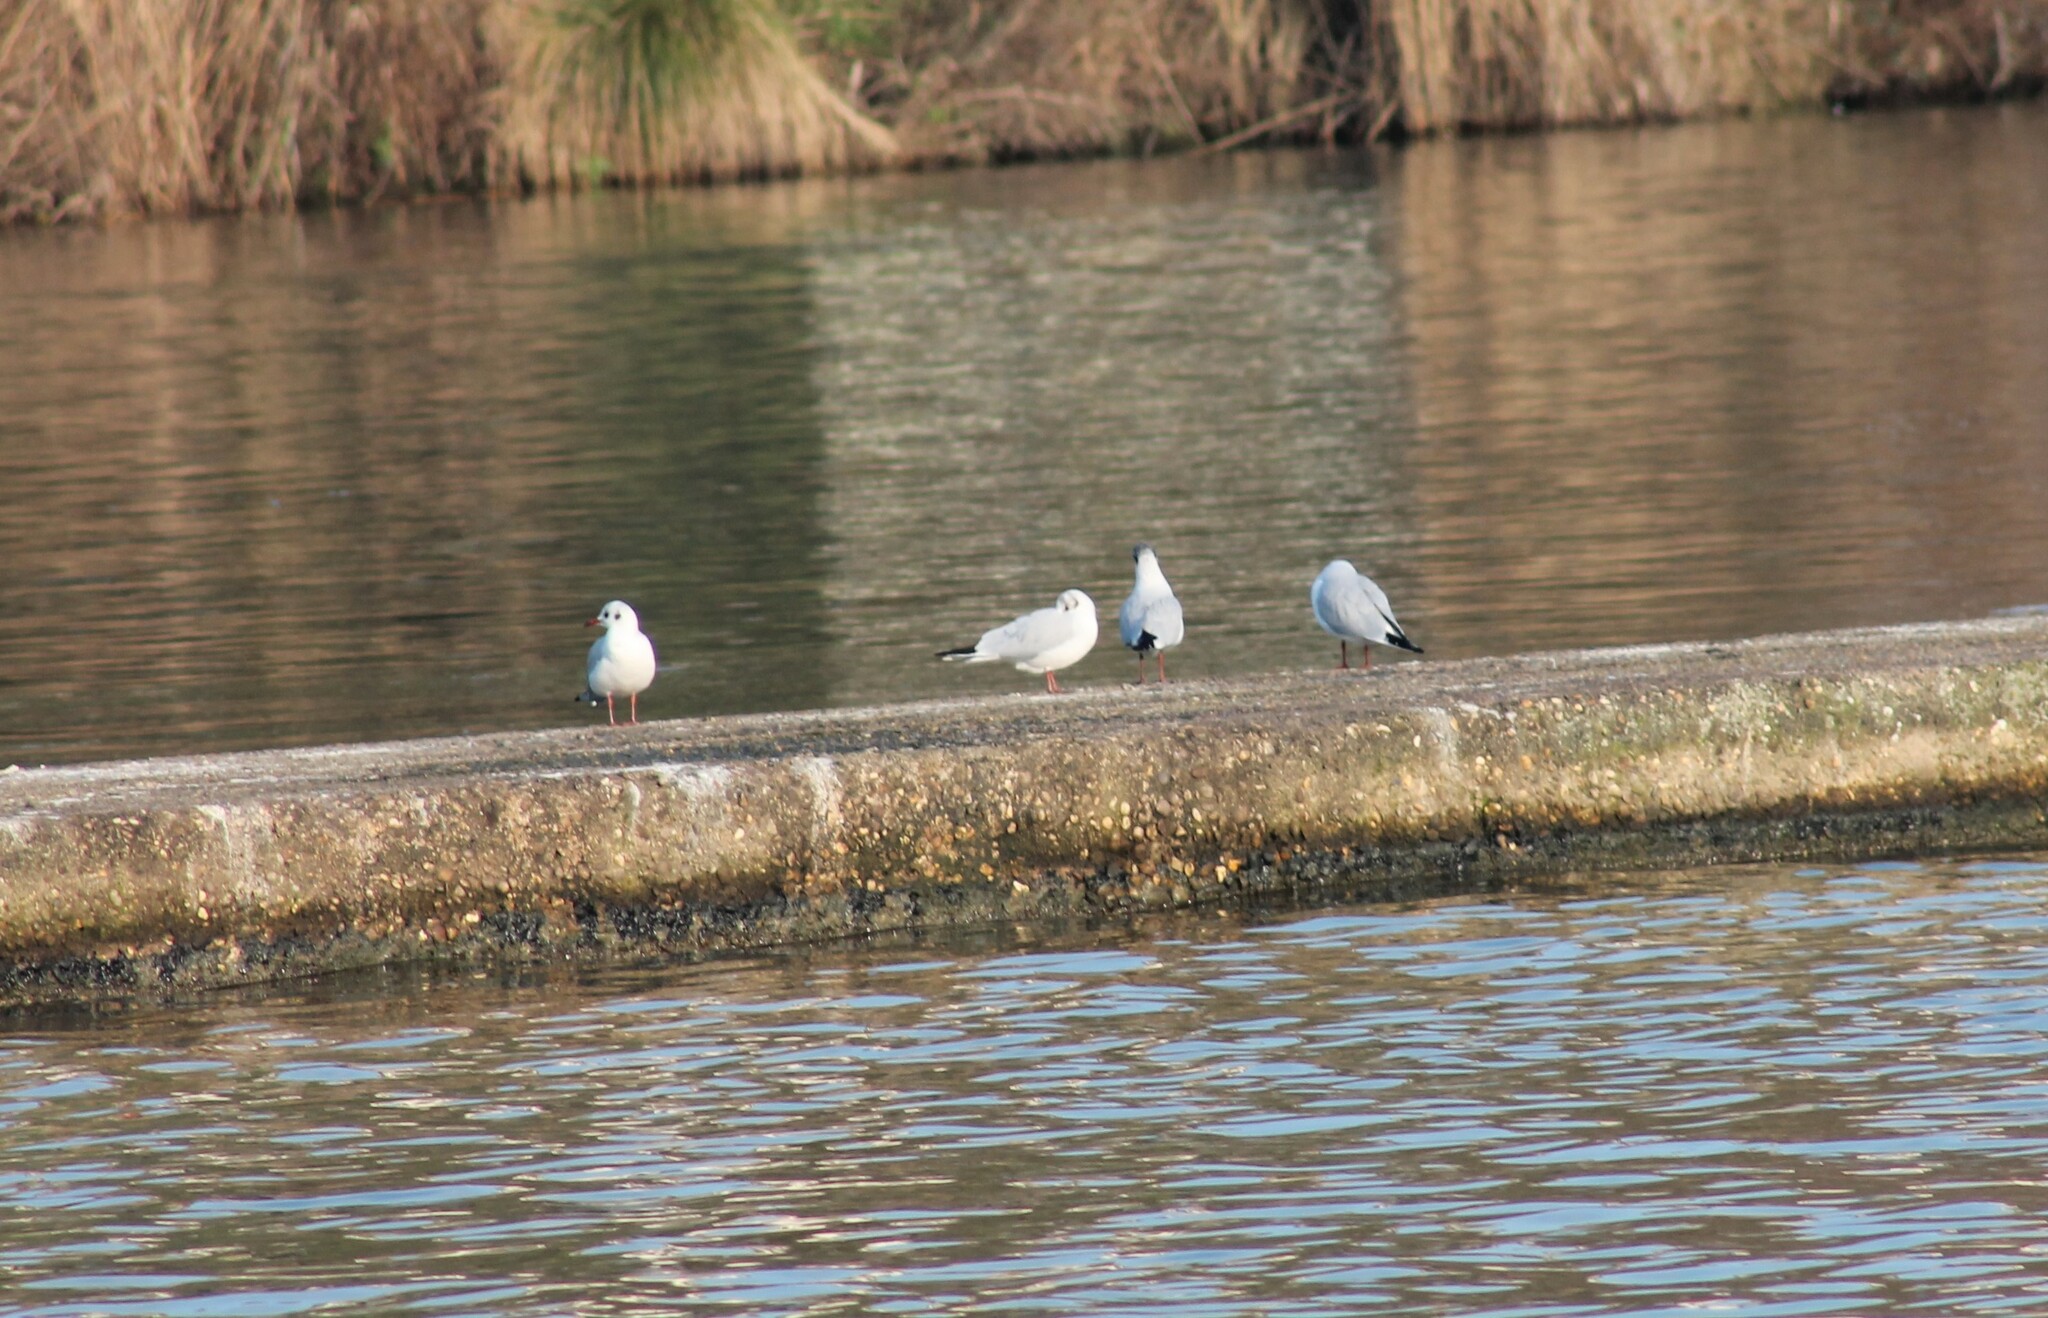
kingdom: Animalia
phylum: Chordata
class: Aves
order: Charadriiformes
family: Laridae
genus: Chroicocephalus
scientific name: Chroicocephalus ridibundus
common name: Black-headed gull
